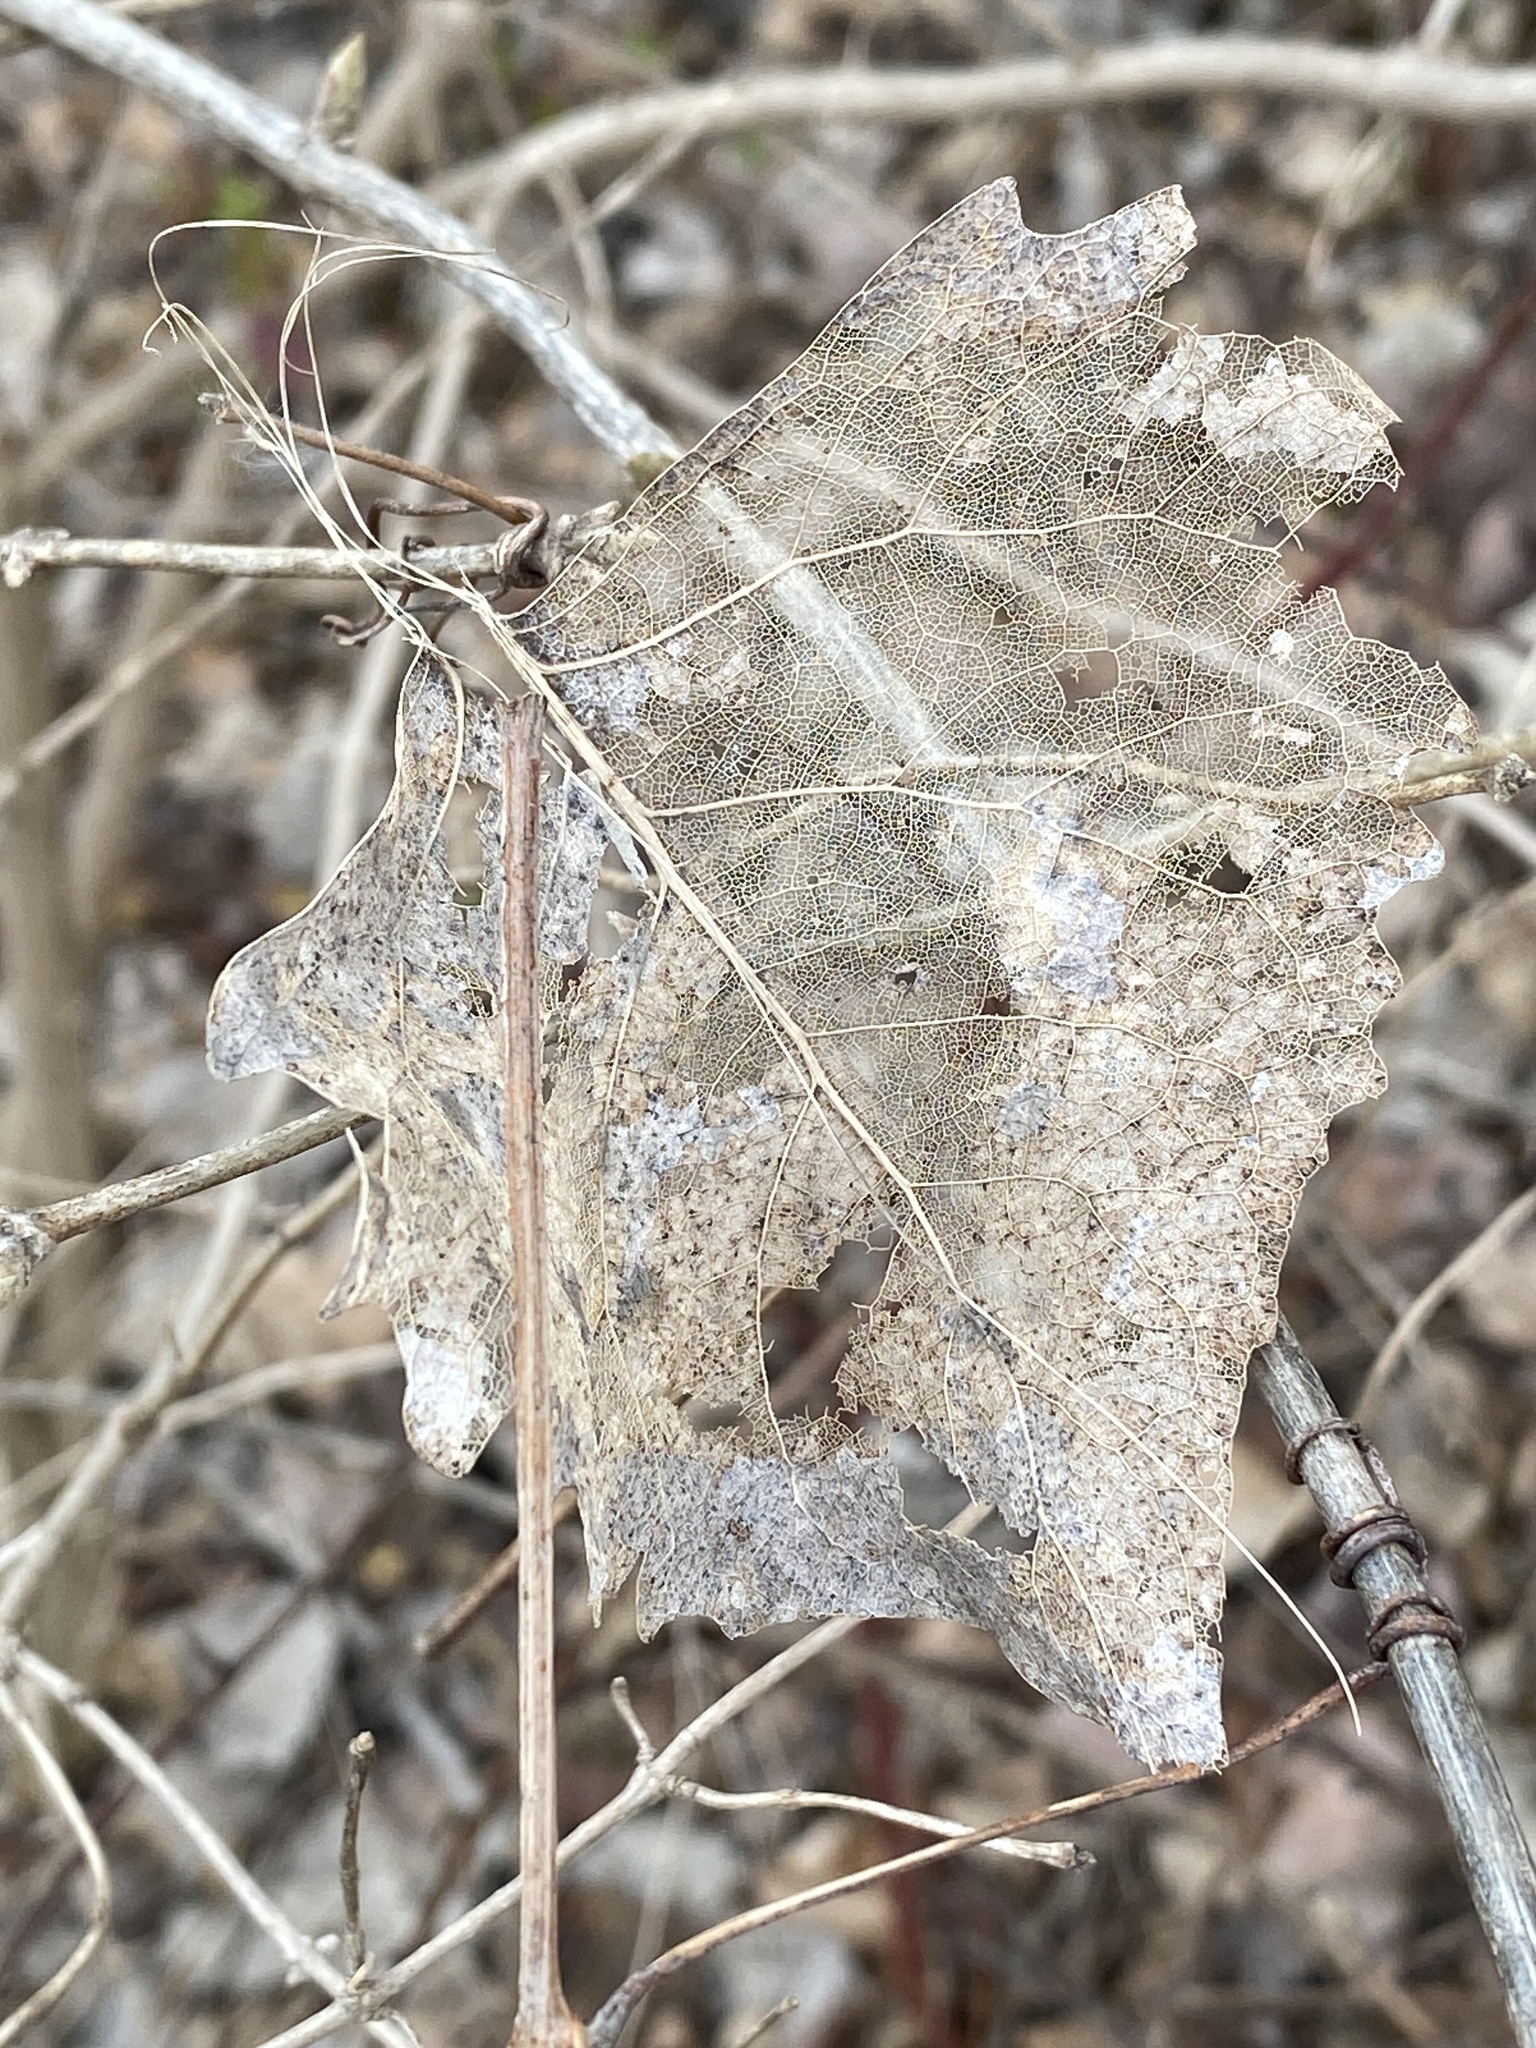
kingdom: Plantae
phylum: Tracheophyta
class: Magnoliopsida
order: Malpighiales
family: Salicaceae
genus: Populus
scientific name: Populus deltoides
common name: Eastern cottonwood
